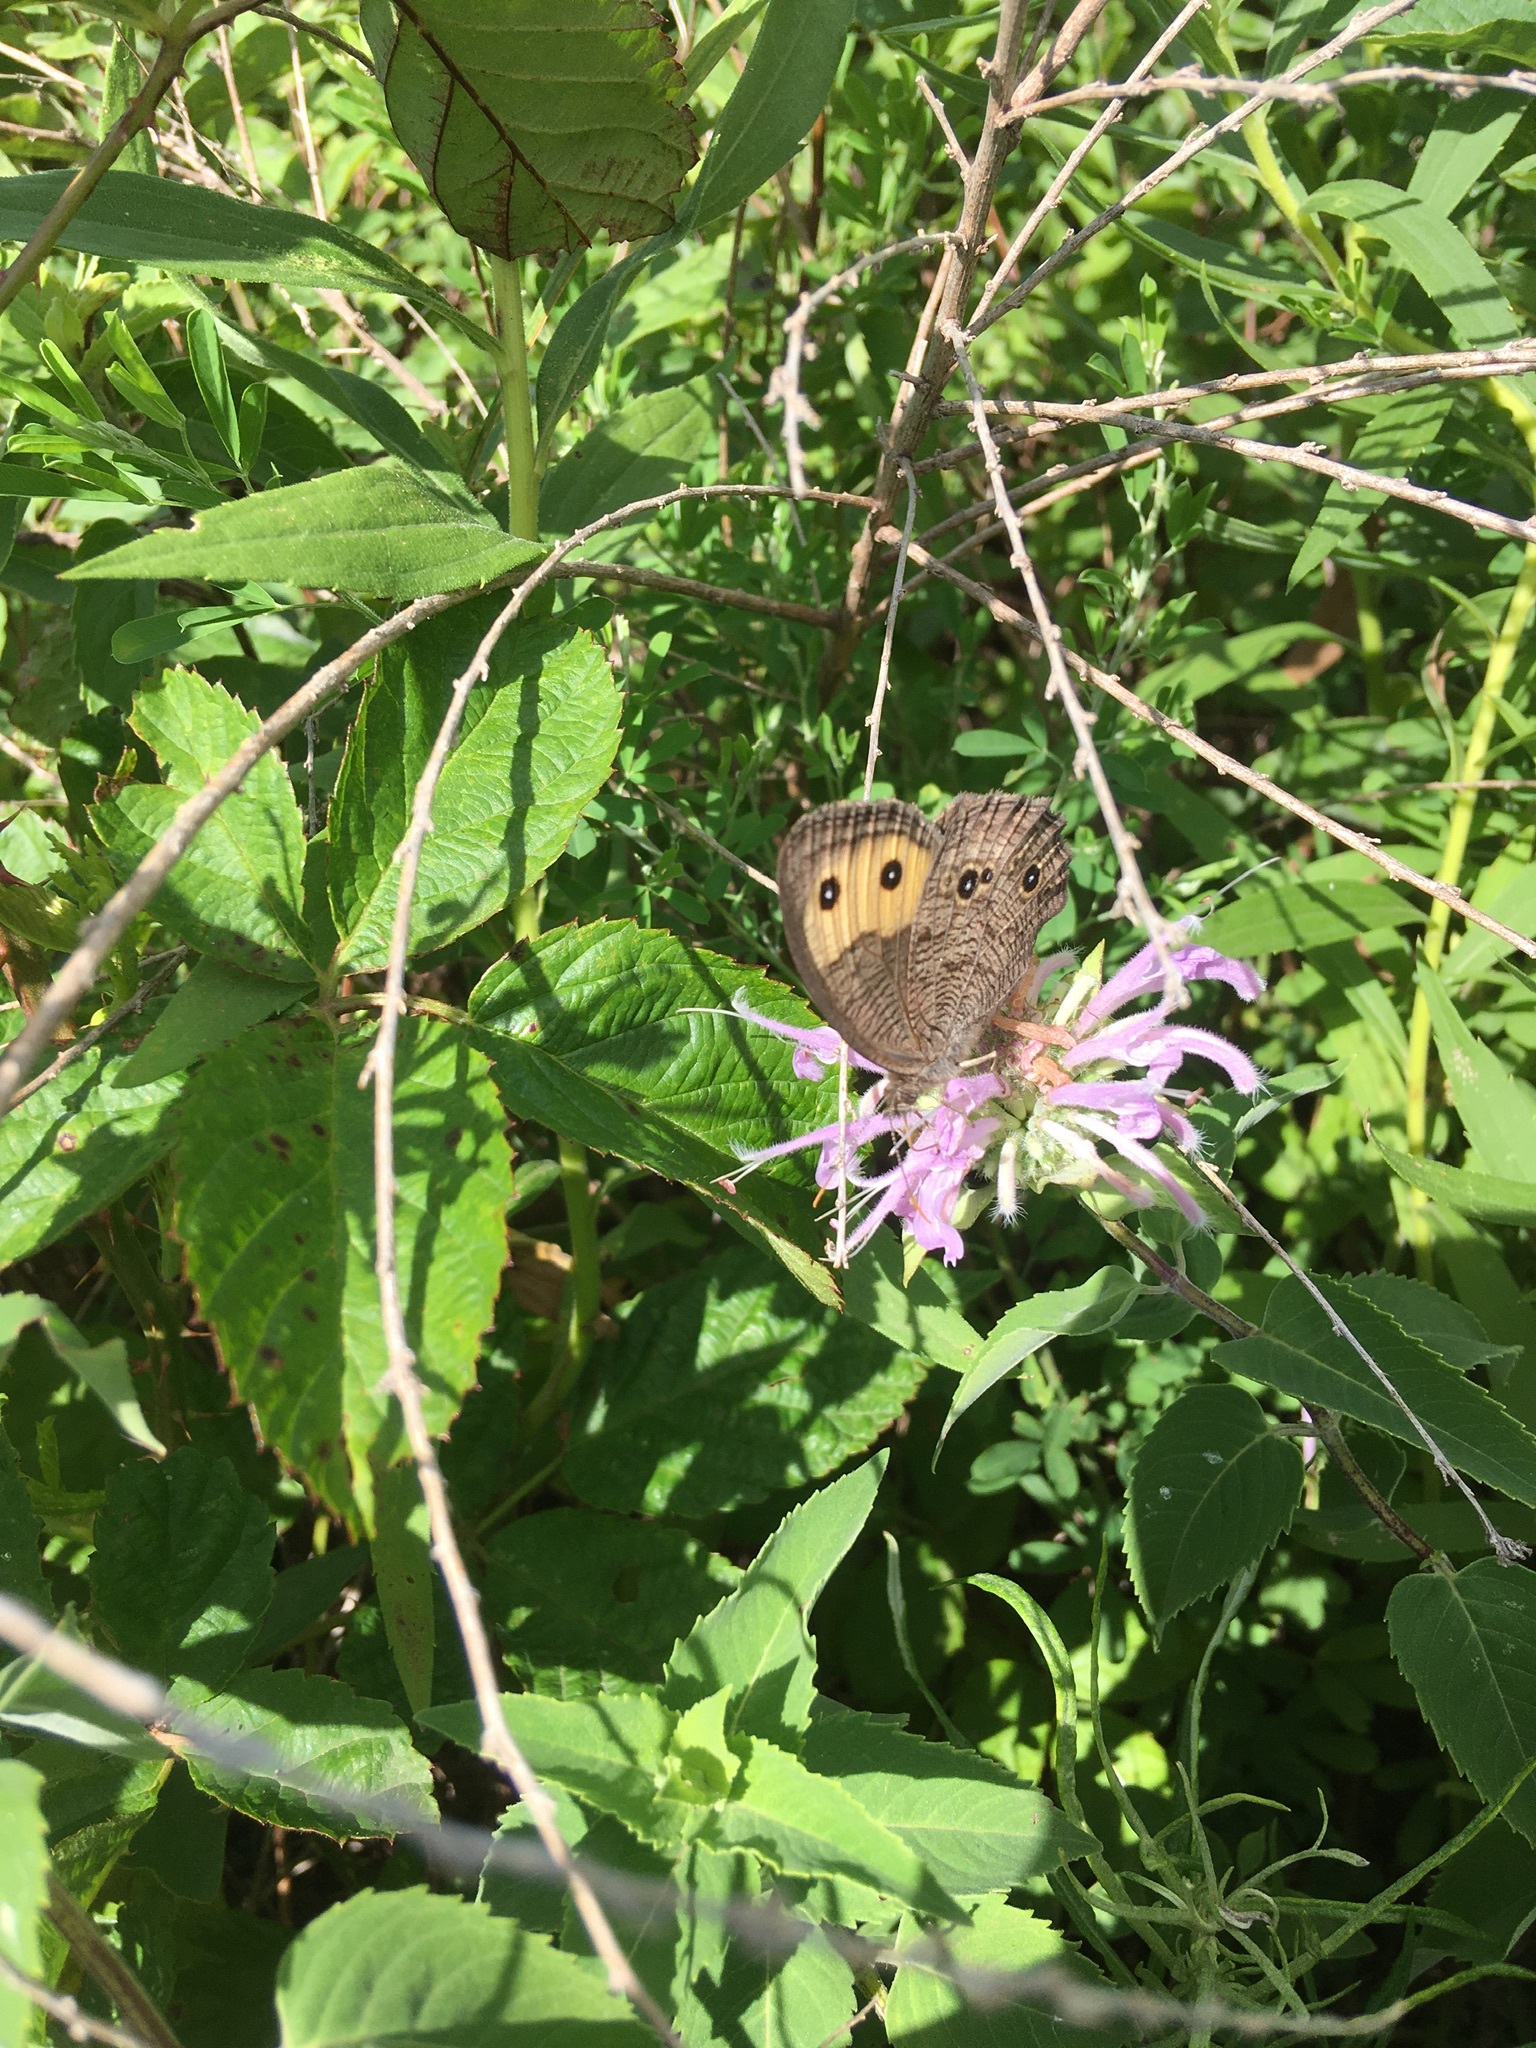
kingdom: Animalia
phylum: Arthropoda
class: Insecta
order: Lepidoptera
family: Nymphalidae
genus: Cercyonis
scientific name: Cercyonis pegala
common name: Common wood-nymph
